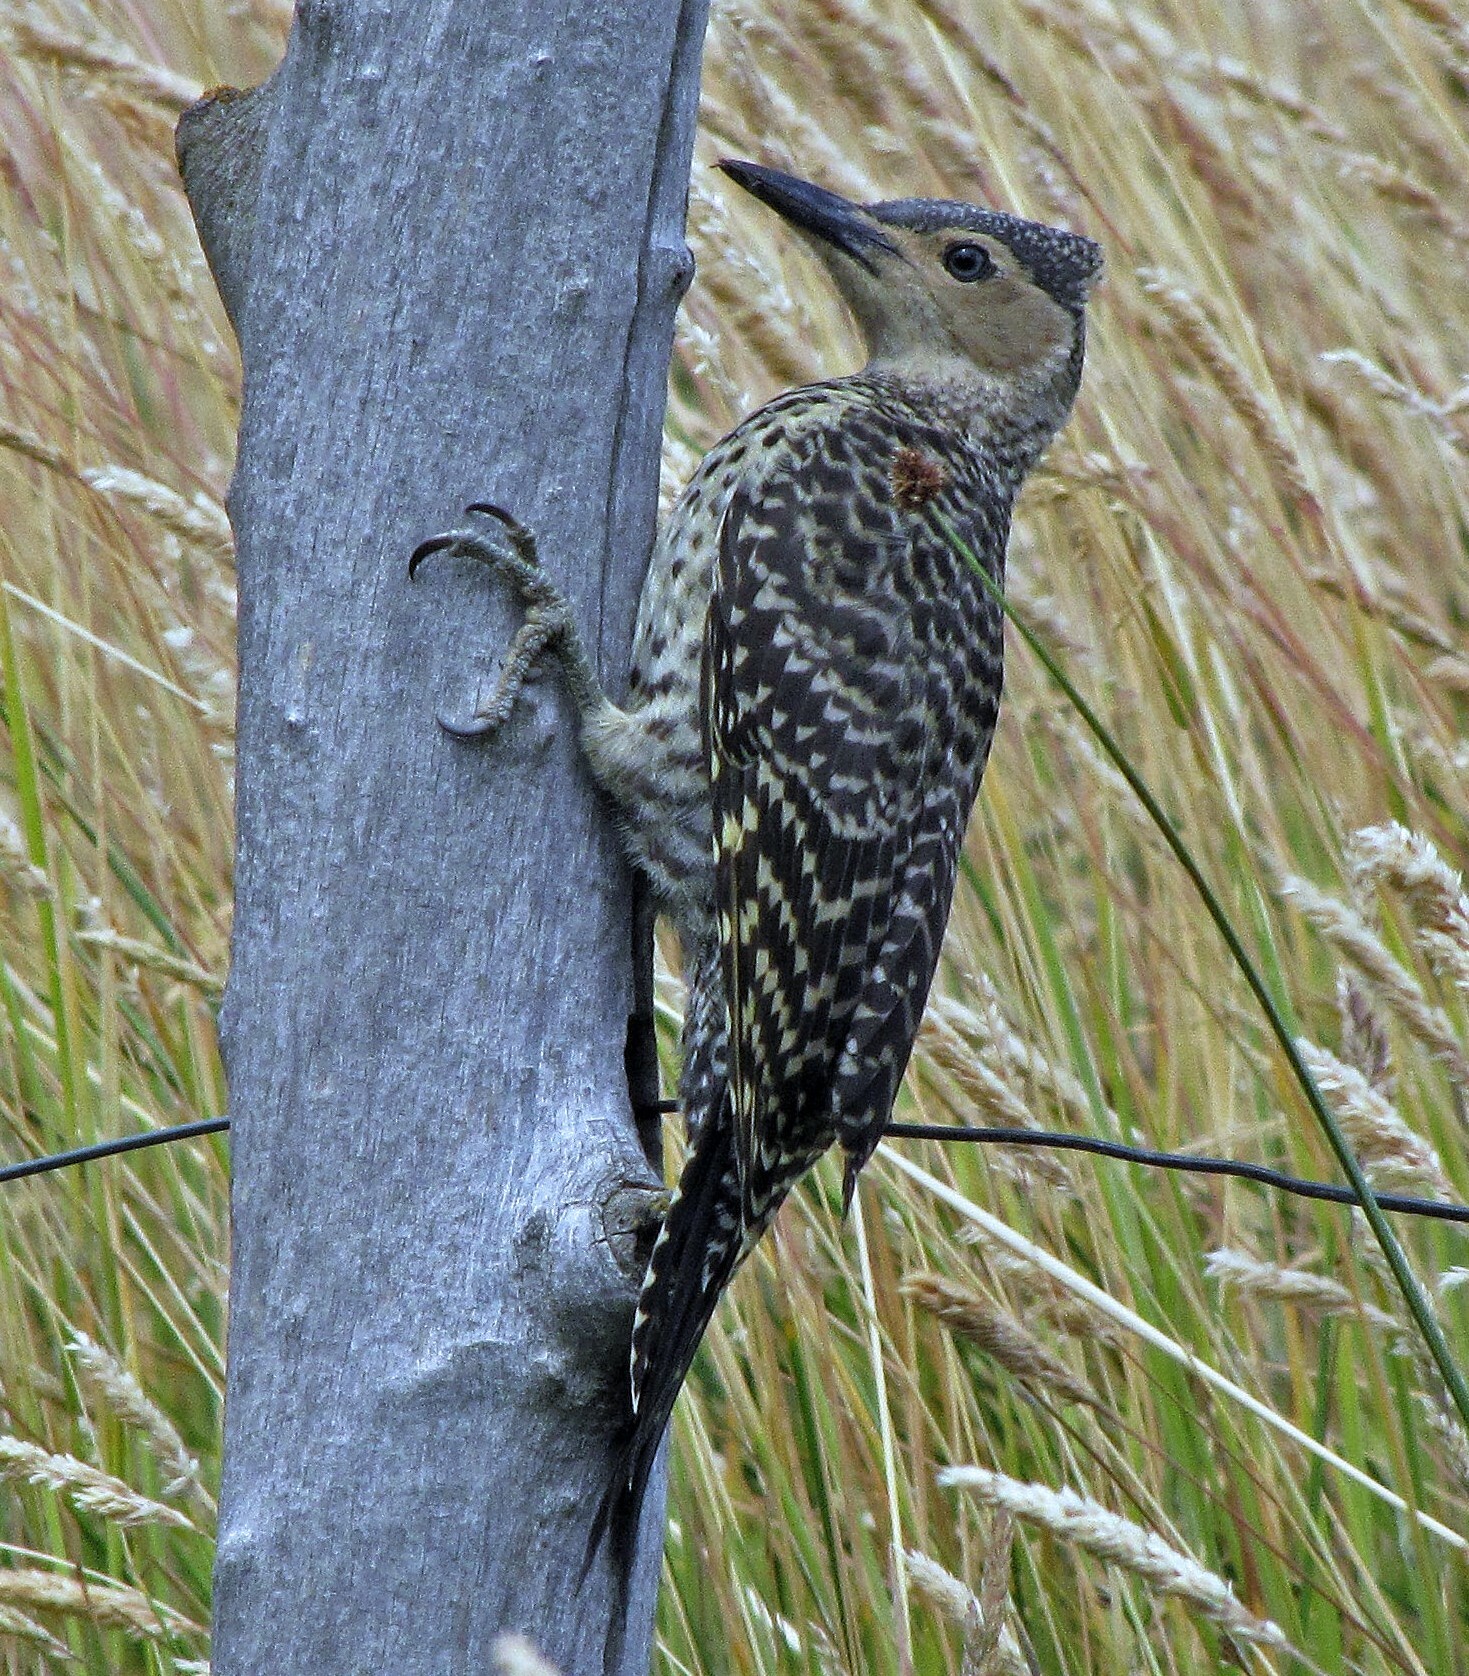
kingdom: Animalia
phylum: Chordata
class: Aves
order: Piciformes
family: Picidae
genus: Colaptes
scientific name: Colaptes pitius
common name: Chilean flicker
